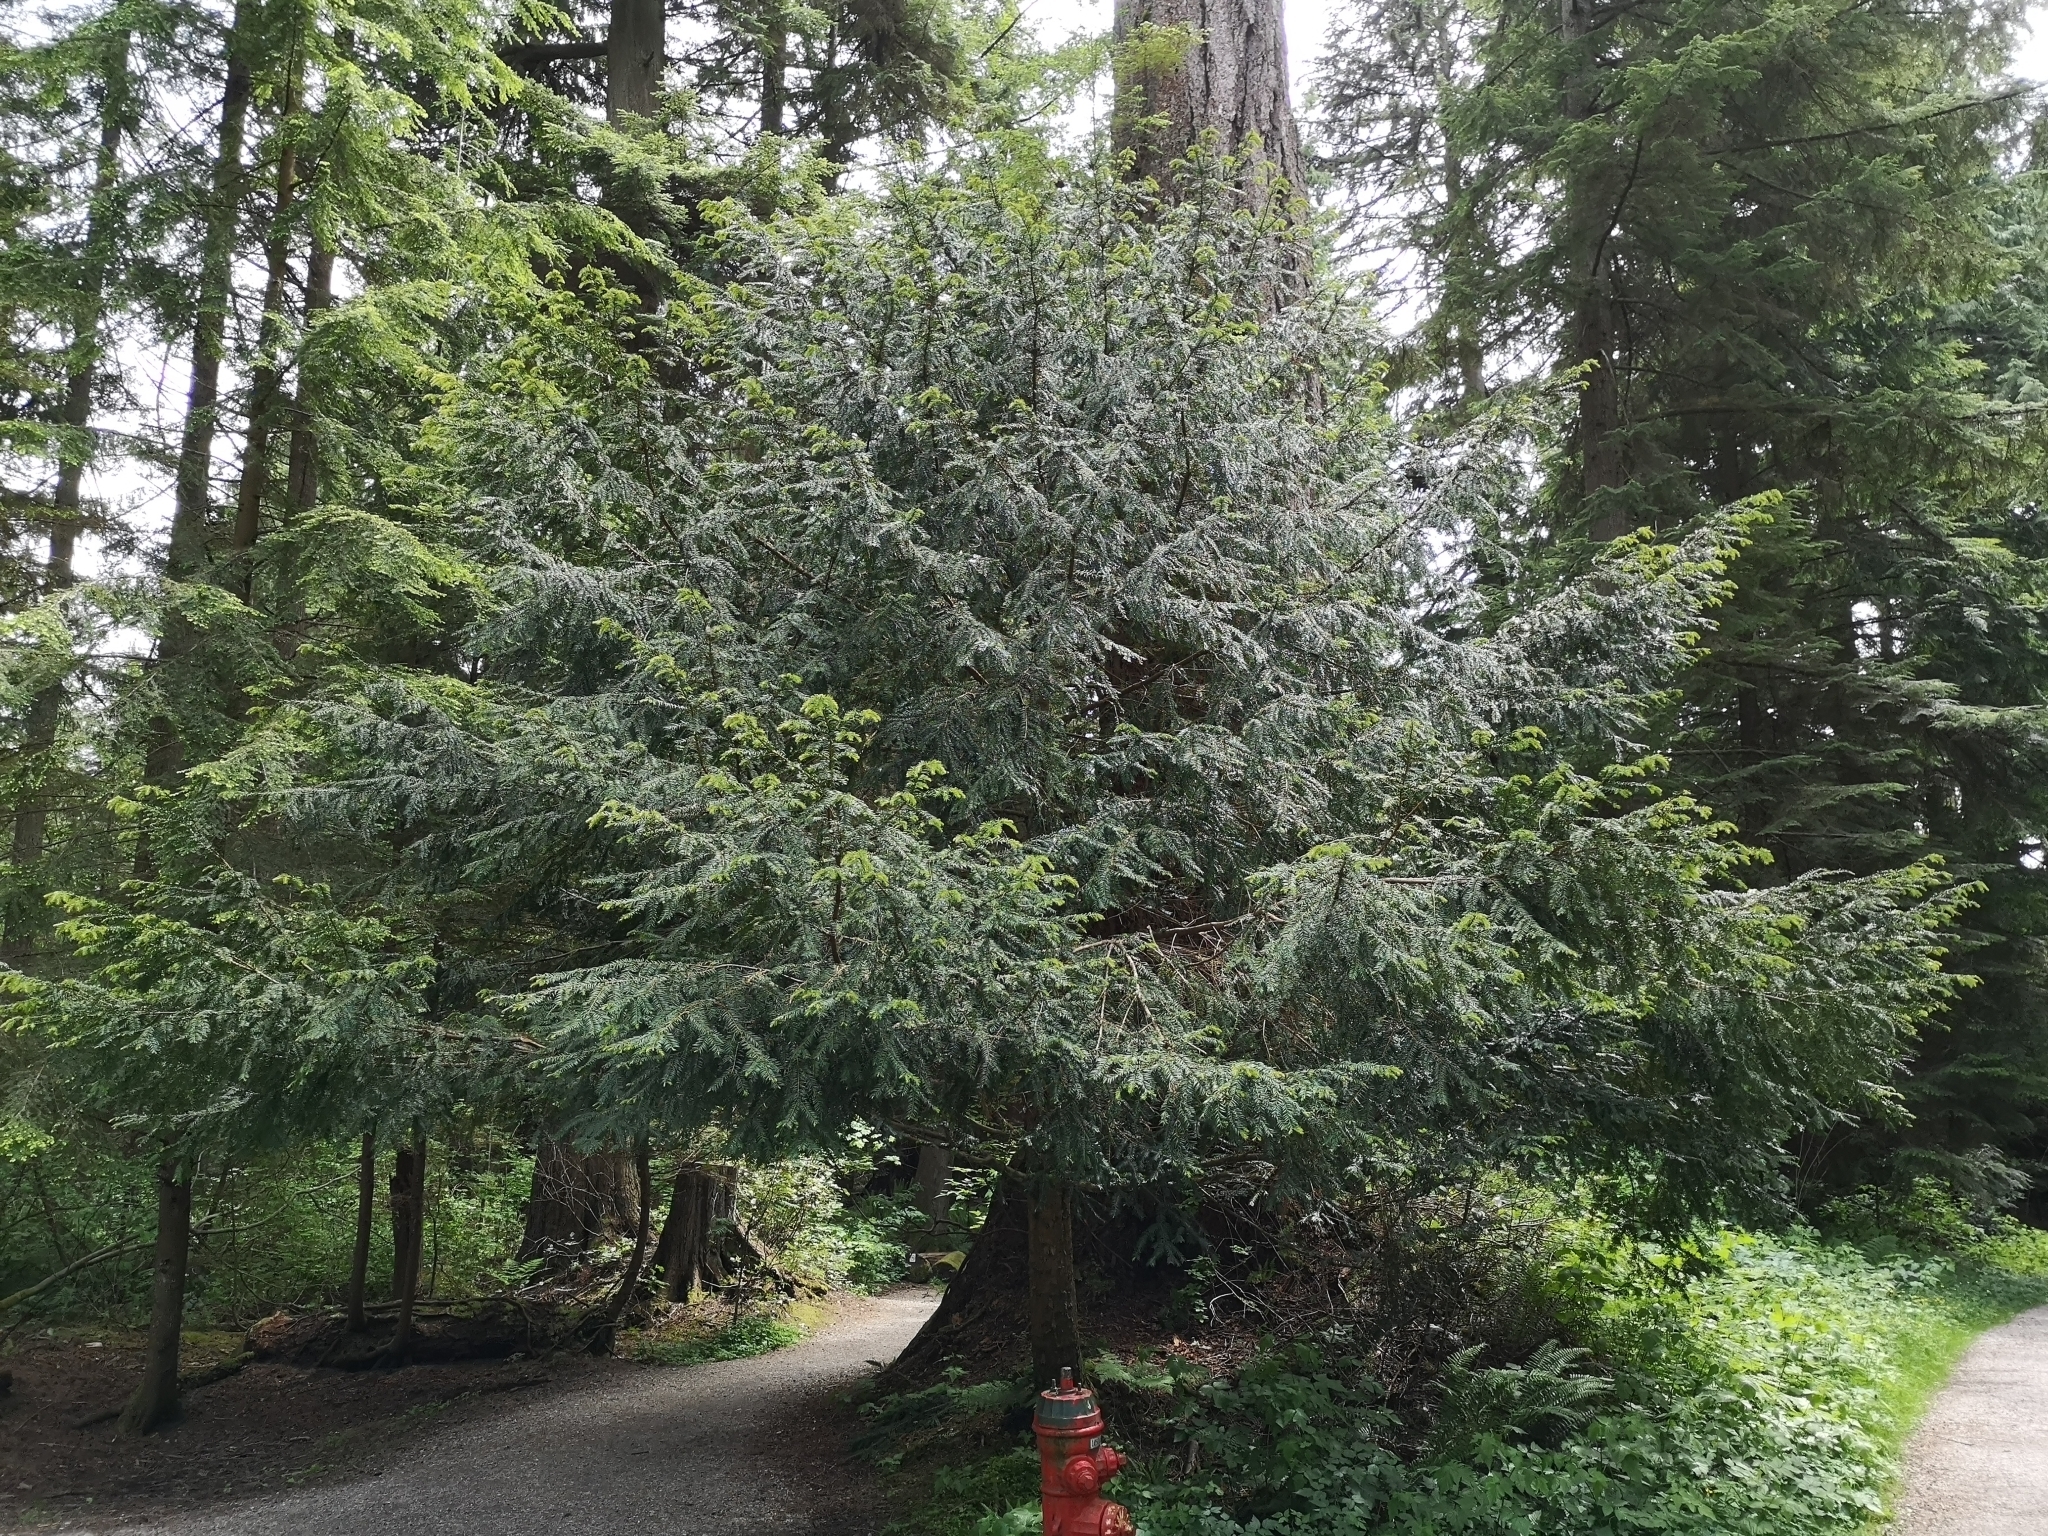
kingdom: Plantae
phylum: Tracheophyta
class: Pinopsida
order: Pinales
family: Taxaceae
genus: Taxus
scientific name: Taxus brevifolia
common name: Pacific yew
